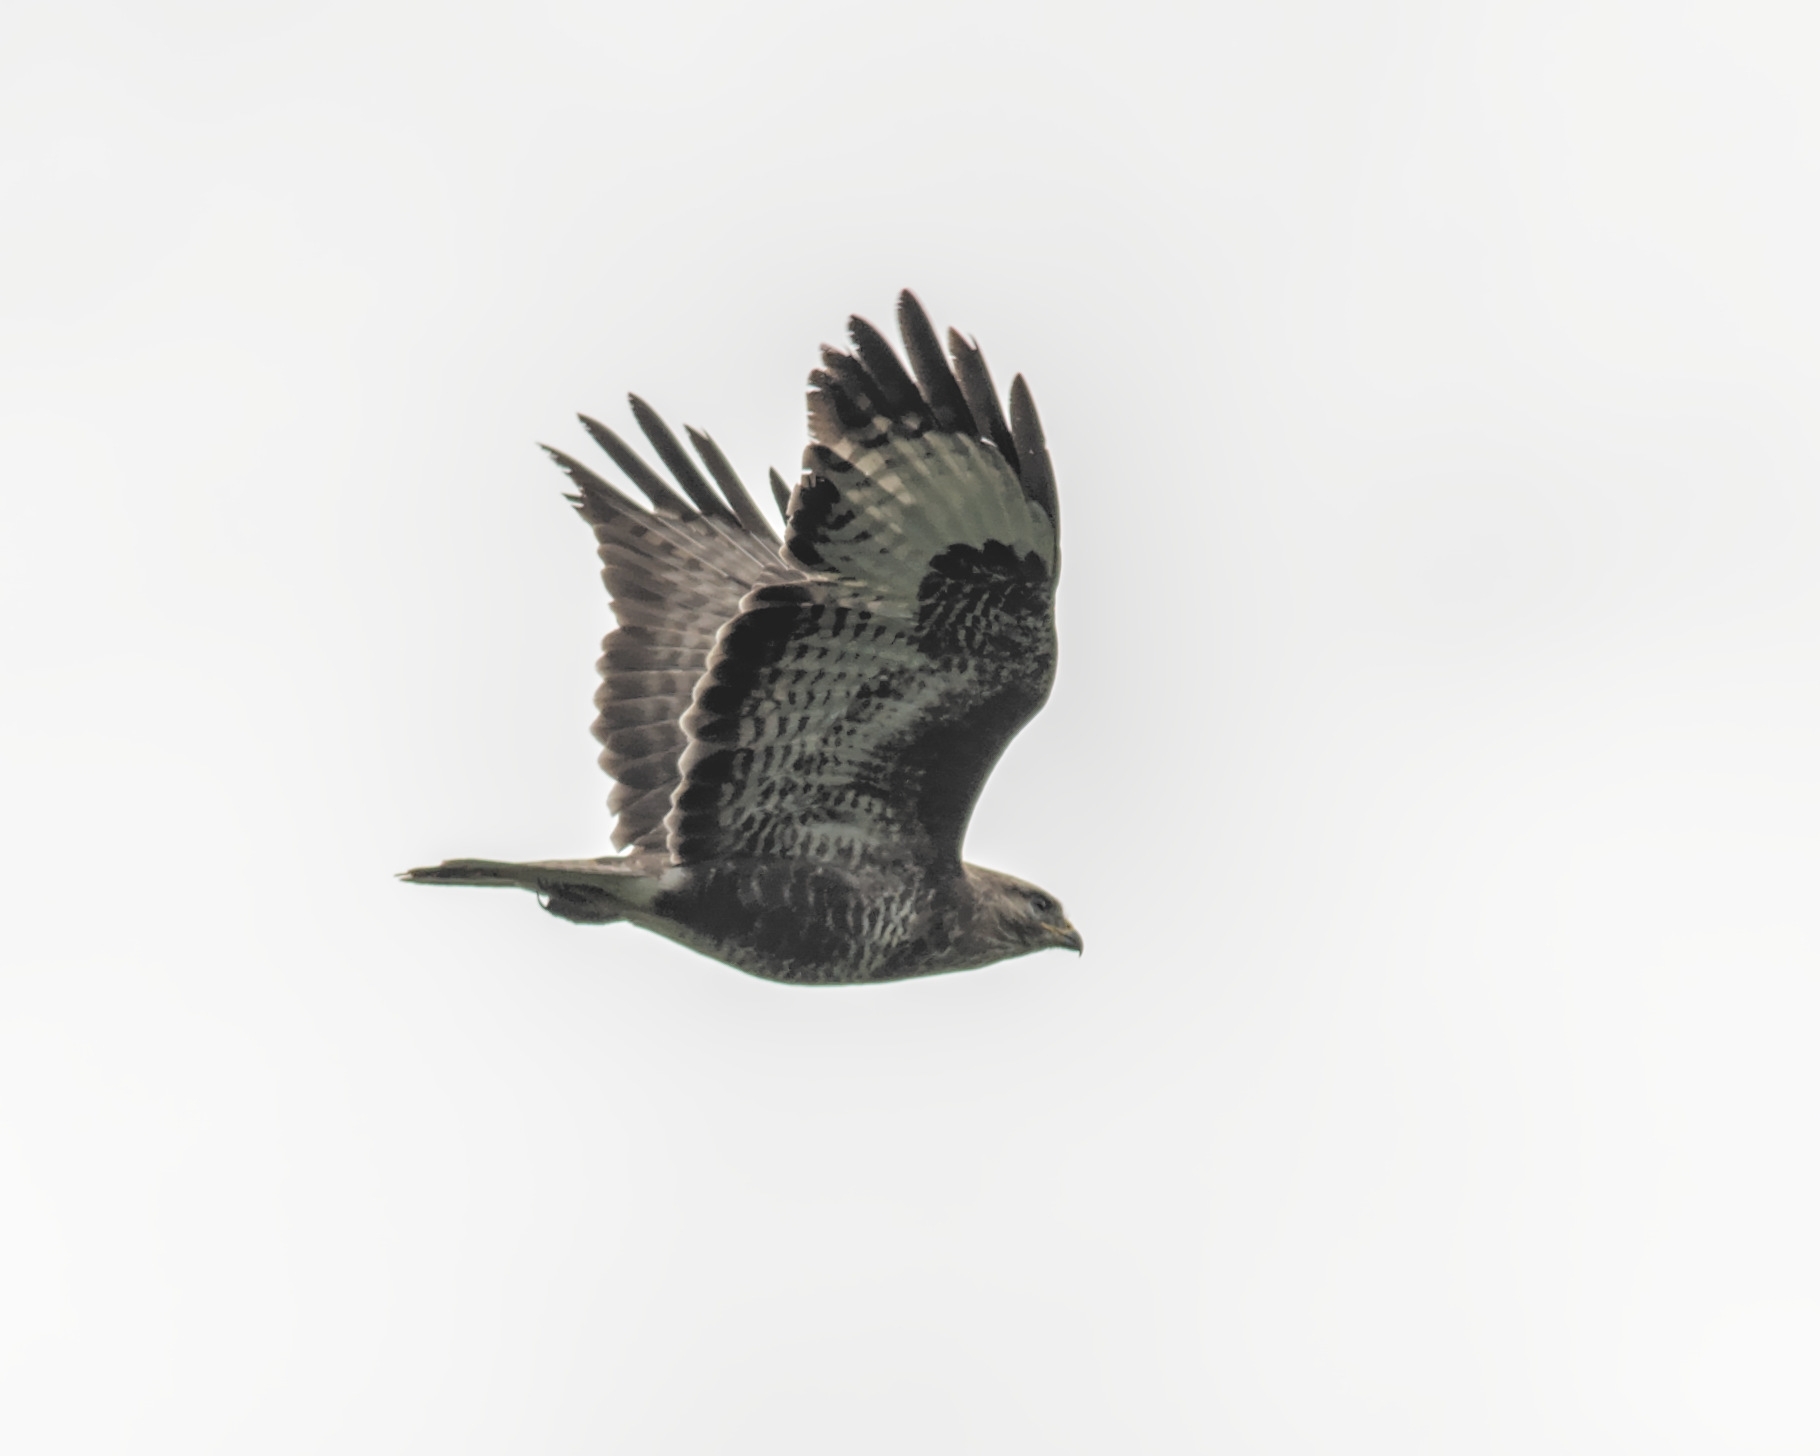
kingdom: Animalia
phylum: Chordata
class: Aves
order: Accipitriformes
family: Accipitridae
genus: Buteo
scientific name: Buteo buteo
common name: Common buzzard
